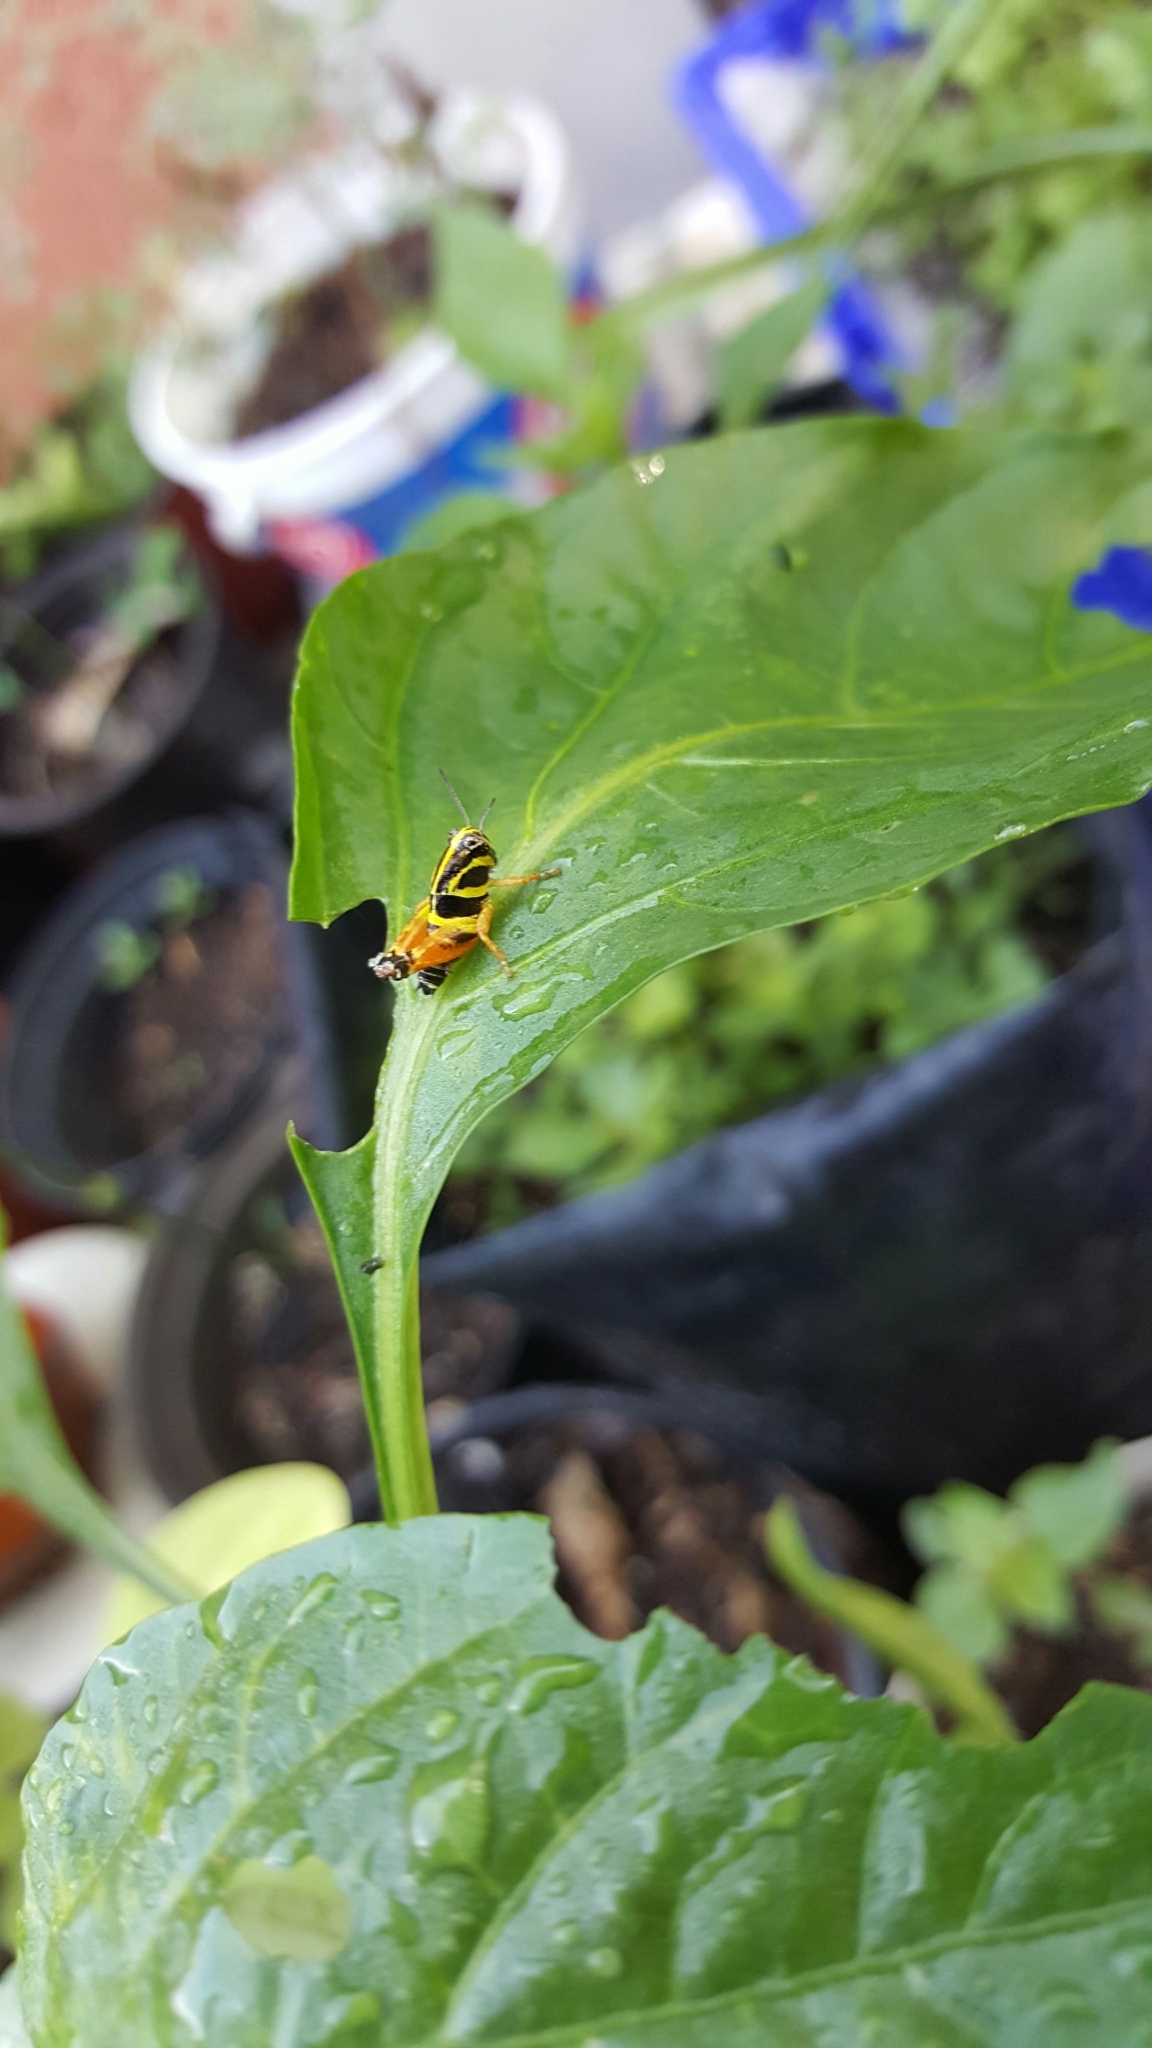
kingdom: Animalia
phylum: Arthropoda
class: Insecta
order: Orthoptera
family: Acrididae
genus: Aidemona
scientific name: Aidemona azteca
